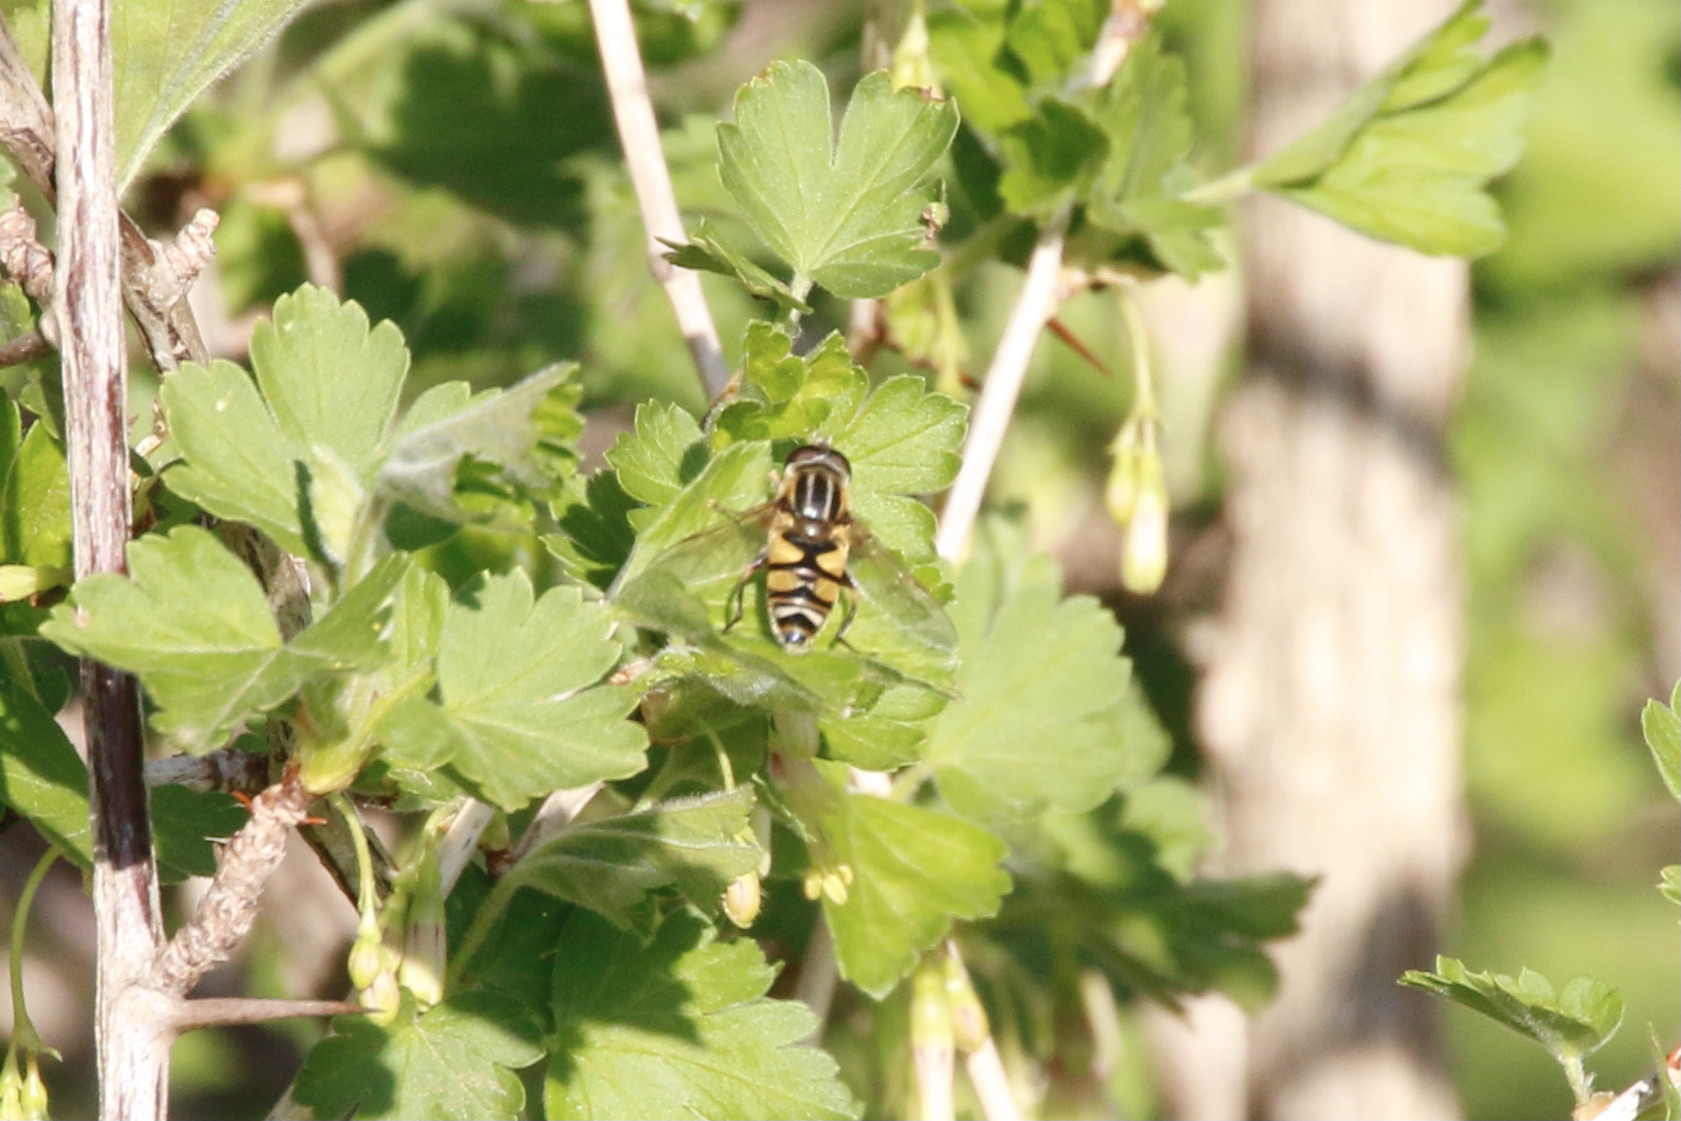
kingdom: Animalia
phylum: Arthropoda
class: Insecta
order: Diptera
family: Syrphidae
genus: Helophilus
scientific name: Helophilus fasciatus
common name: Narrow-headed marsh fly
